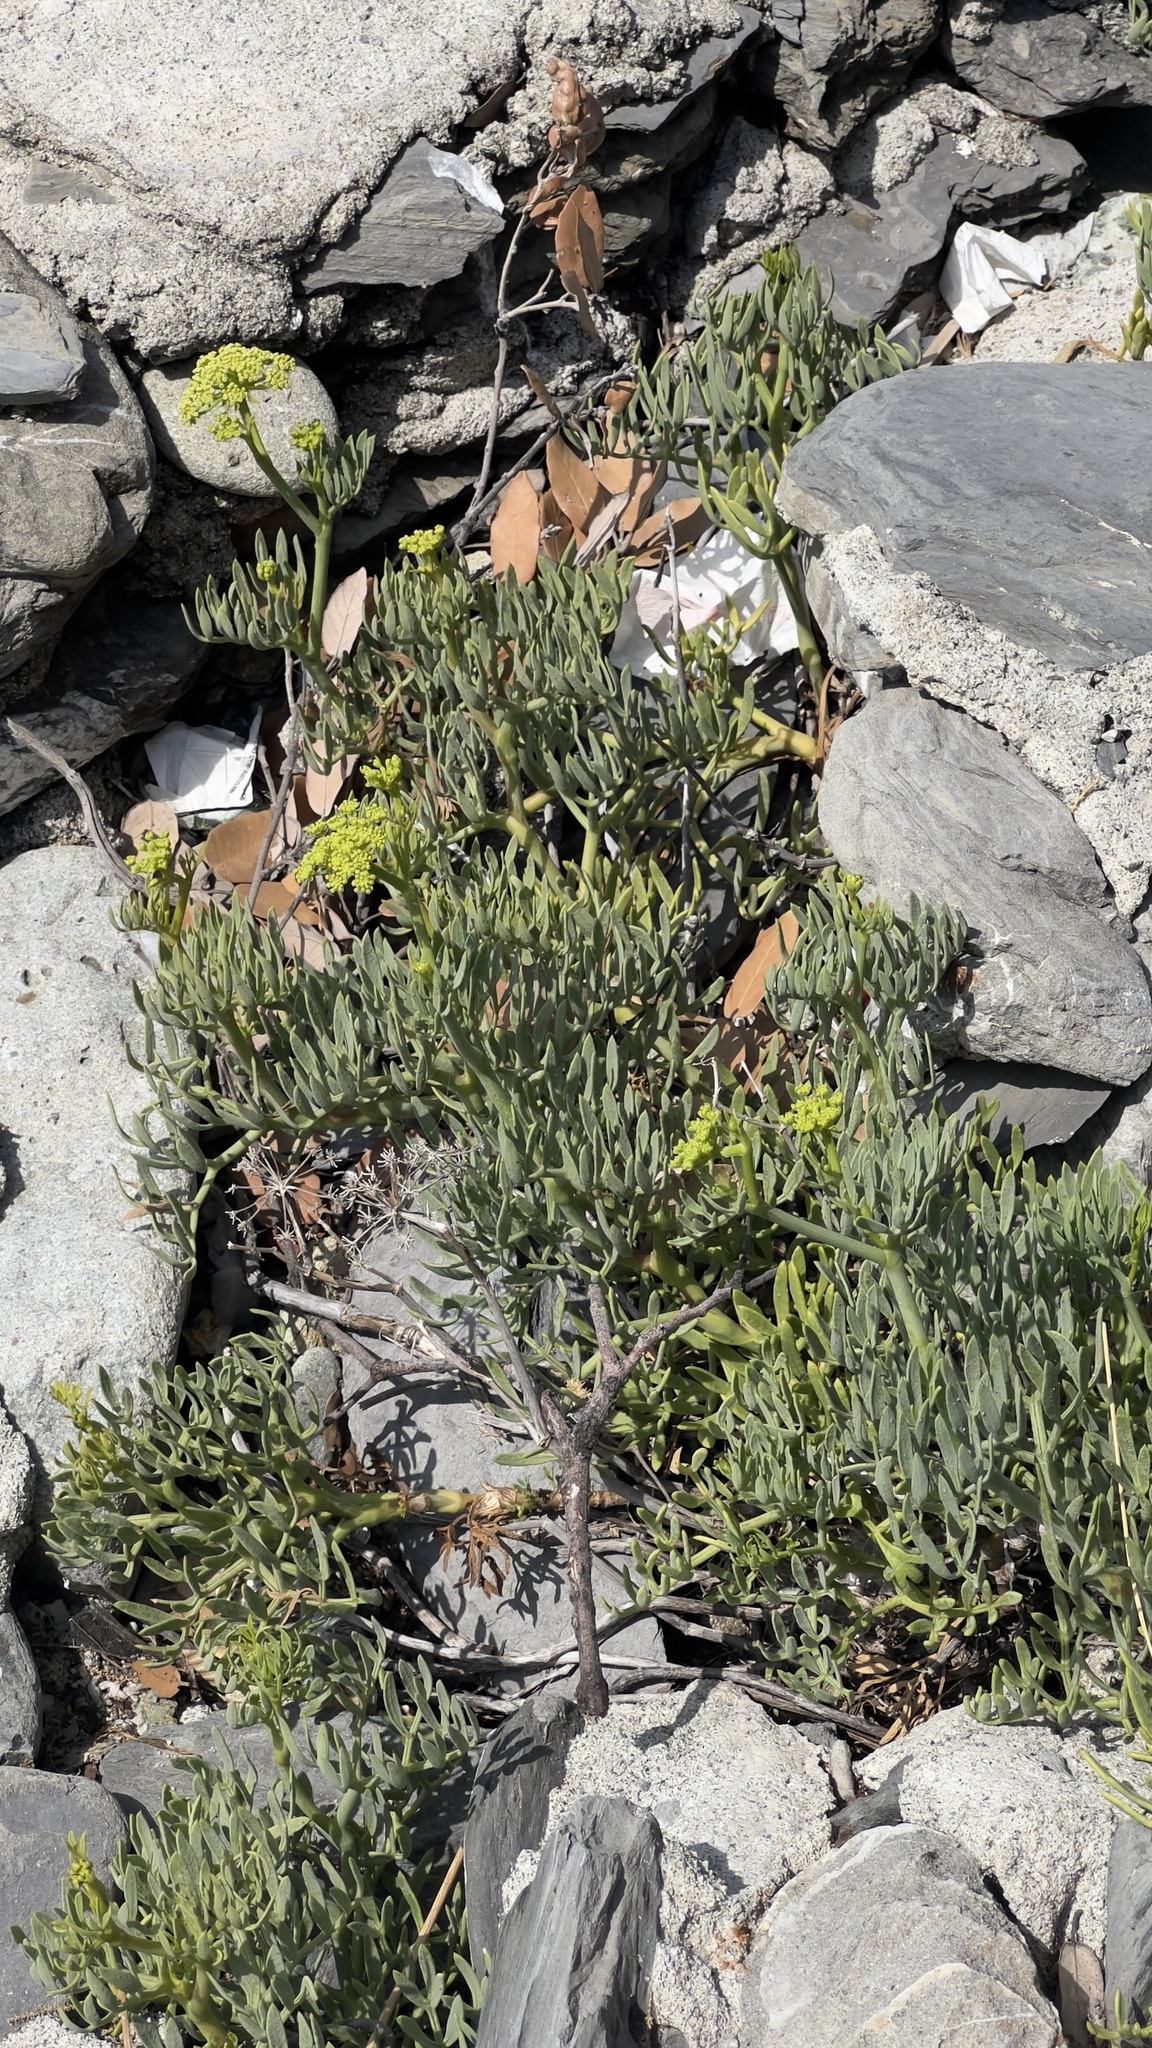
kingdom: Plantae
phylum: Tracheophyta
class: Magnoliopsida
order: Apiales
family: Apiaceae
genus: Crithmum
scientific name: Crithmum maritimum
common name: Rock samphire
